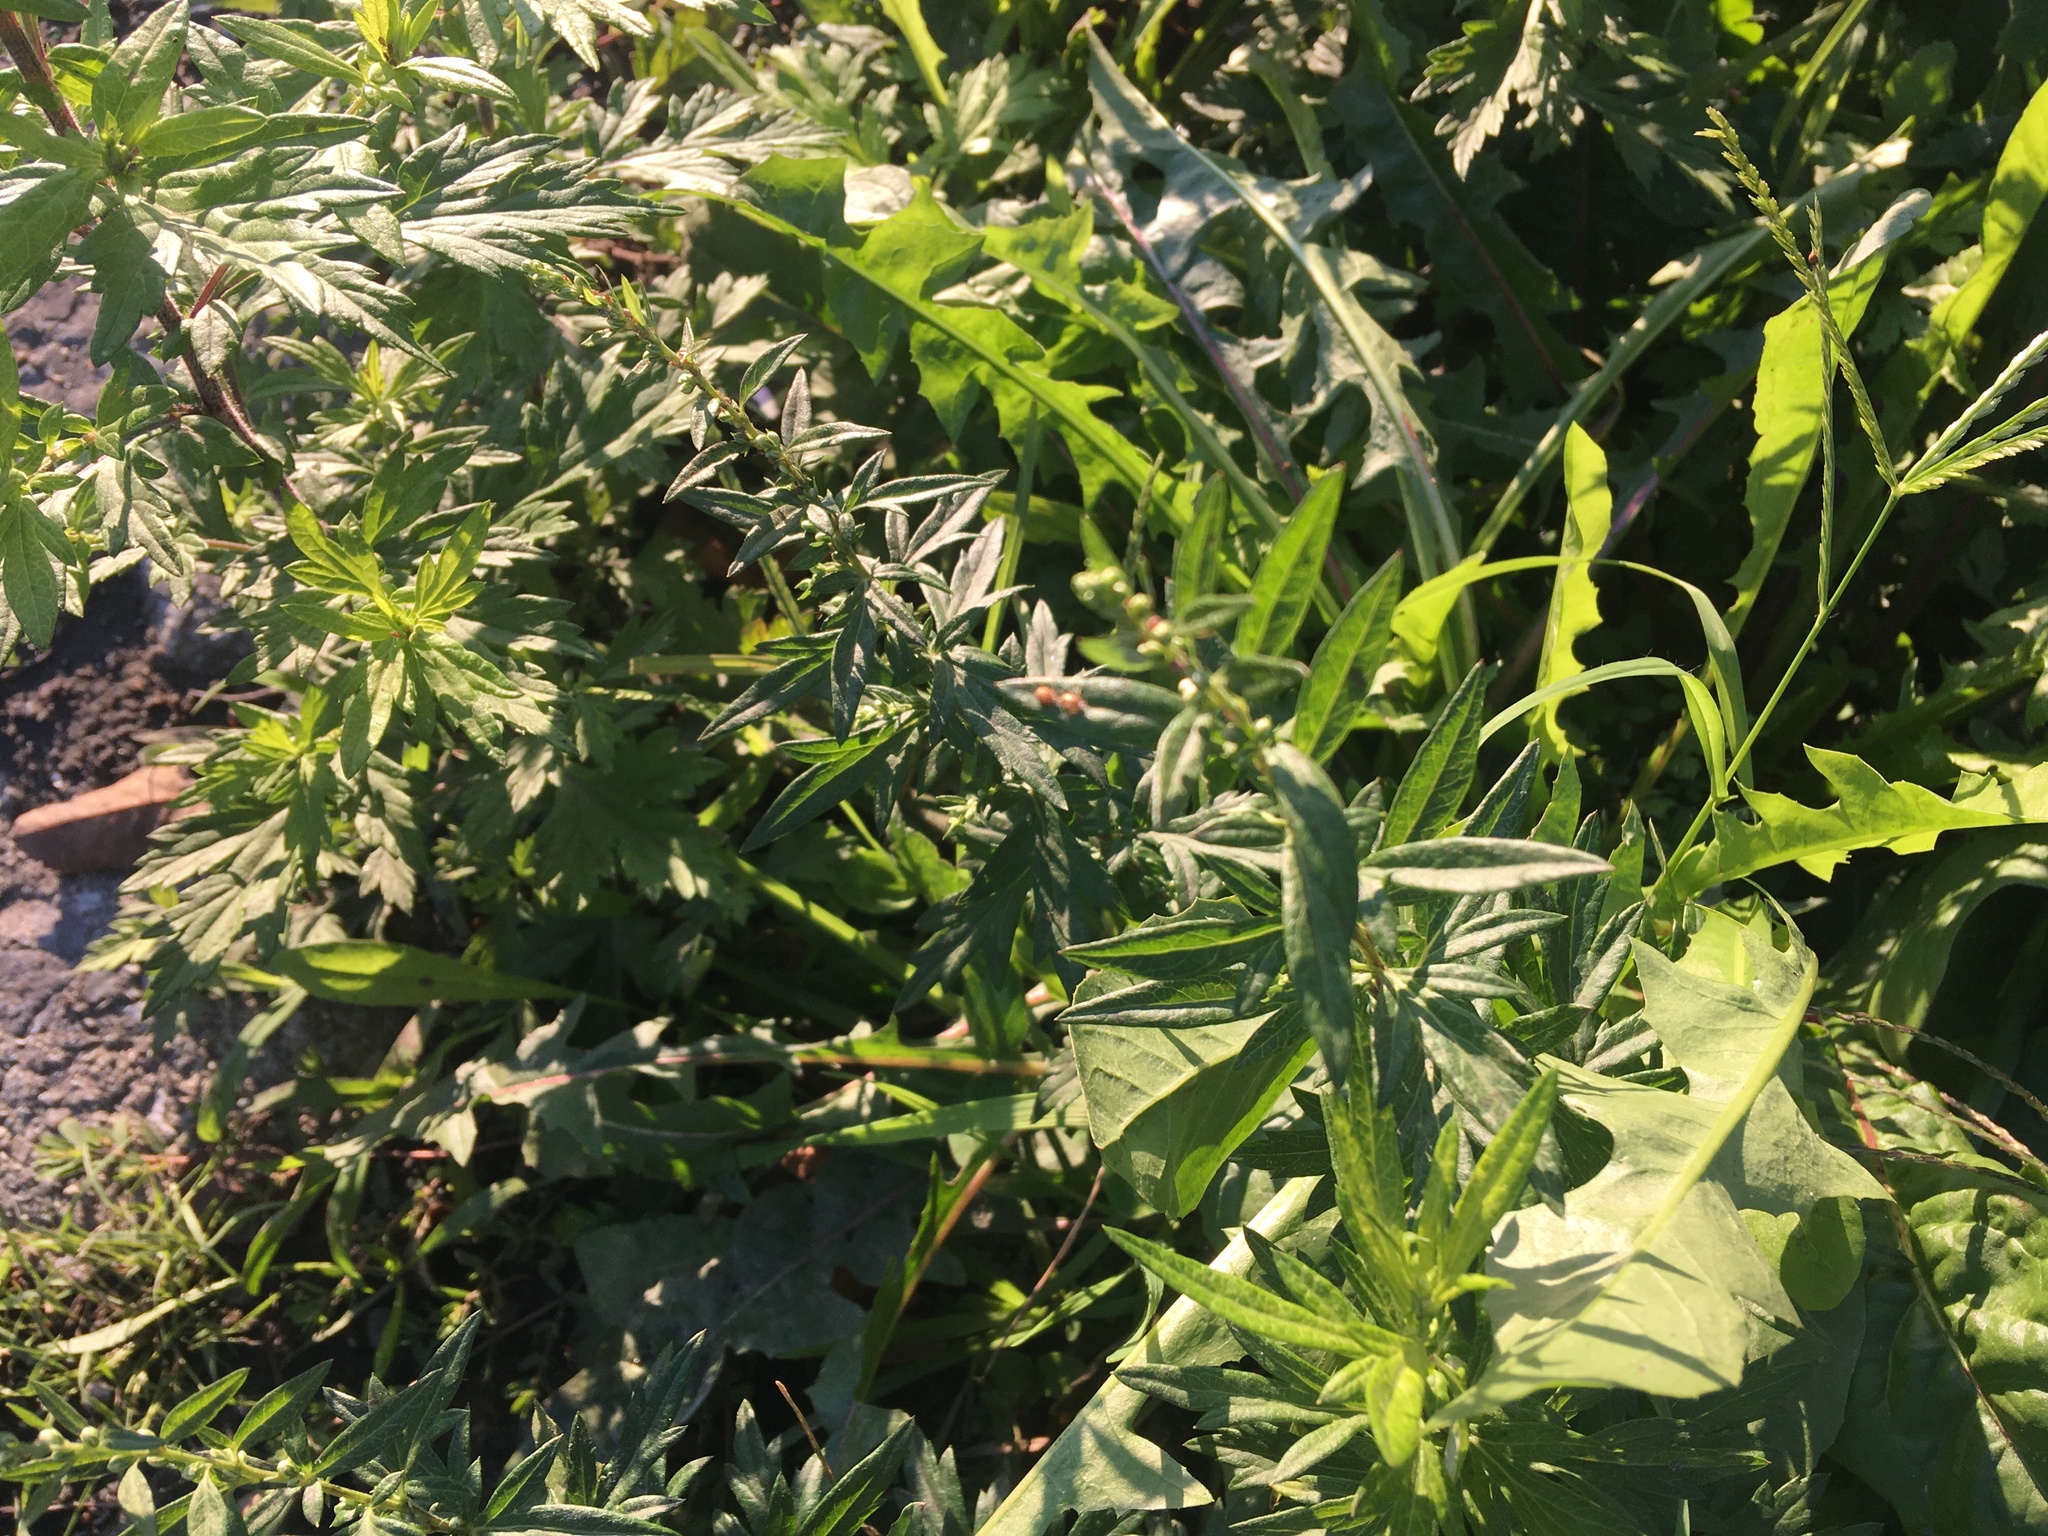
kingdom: Plantae
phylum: Tracheophyta
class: Magnoliopsida
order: Asterales
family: Asteraceae
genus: Artemisia
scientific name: Artemisia vulgaris
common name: Mugwort
